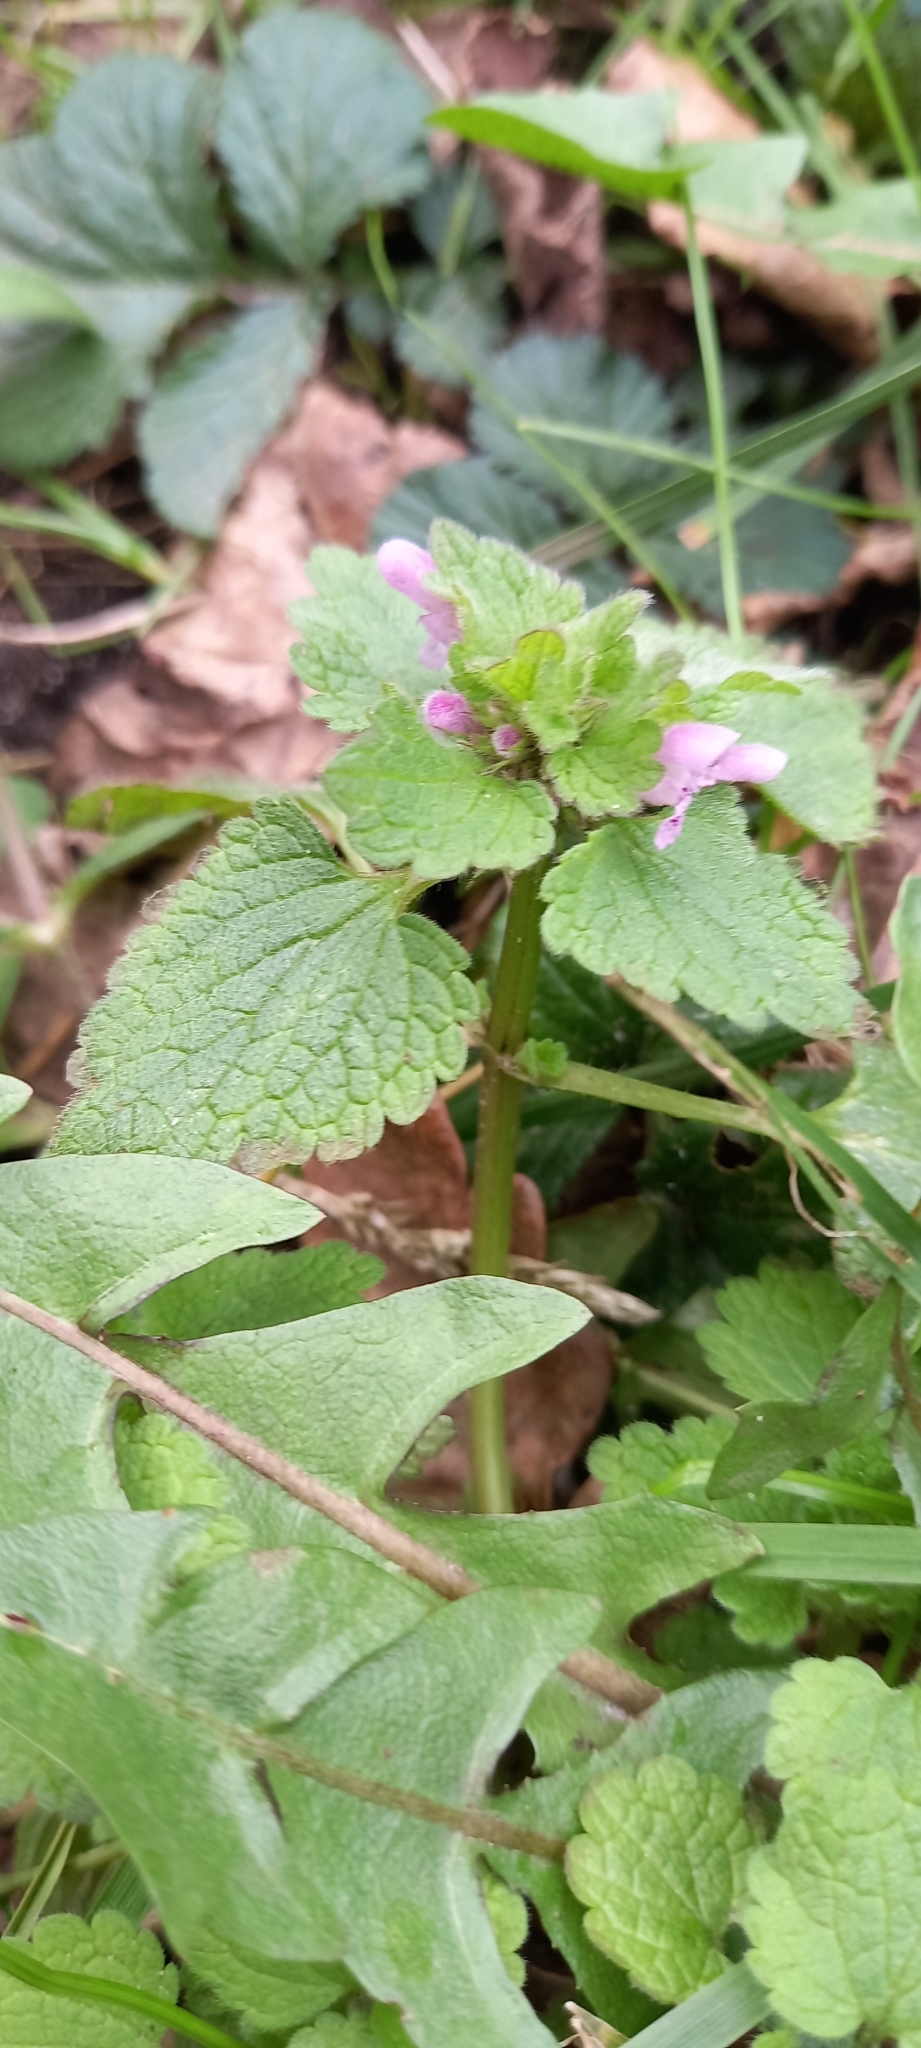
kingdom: Plantae
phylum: Tracheophyta
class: Magnoliopsida
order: Lamiales
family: Lamiaceae
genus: Lamium
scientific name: Lamium purpureum
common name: Red dead-nettle
